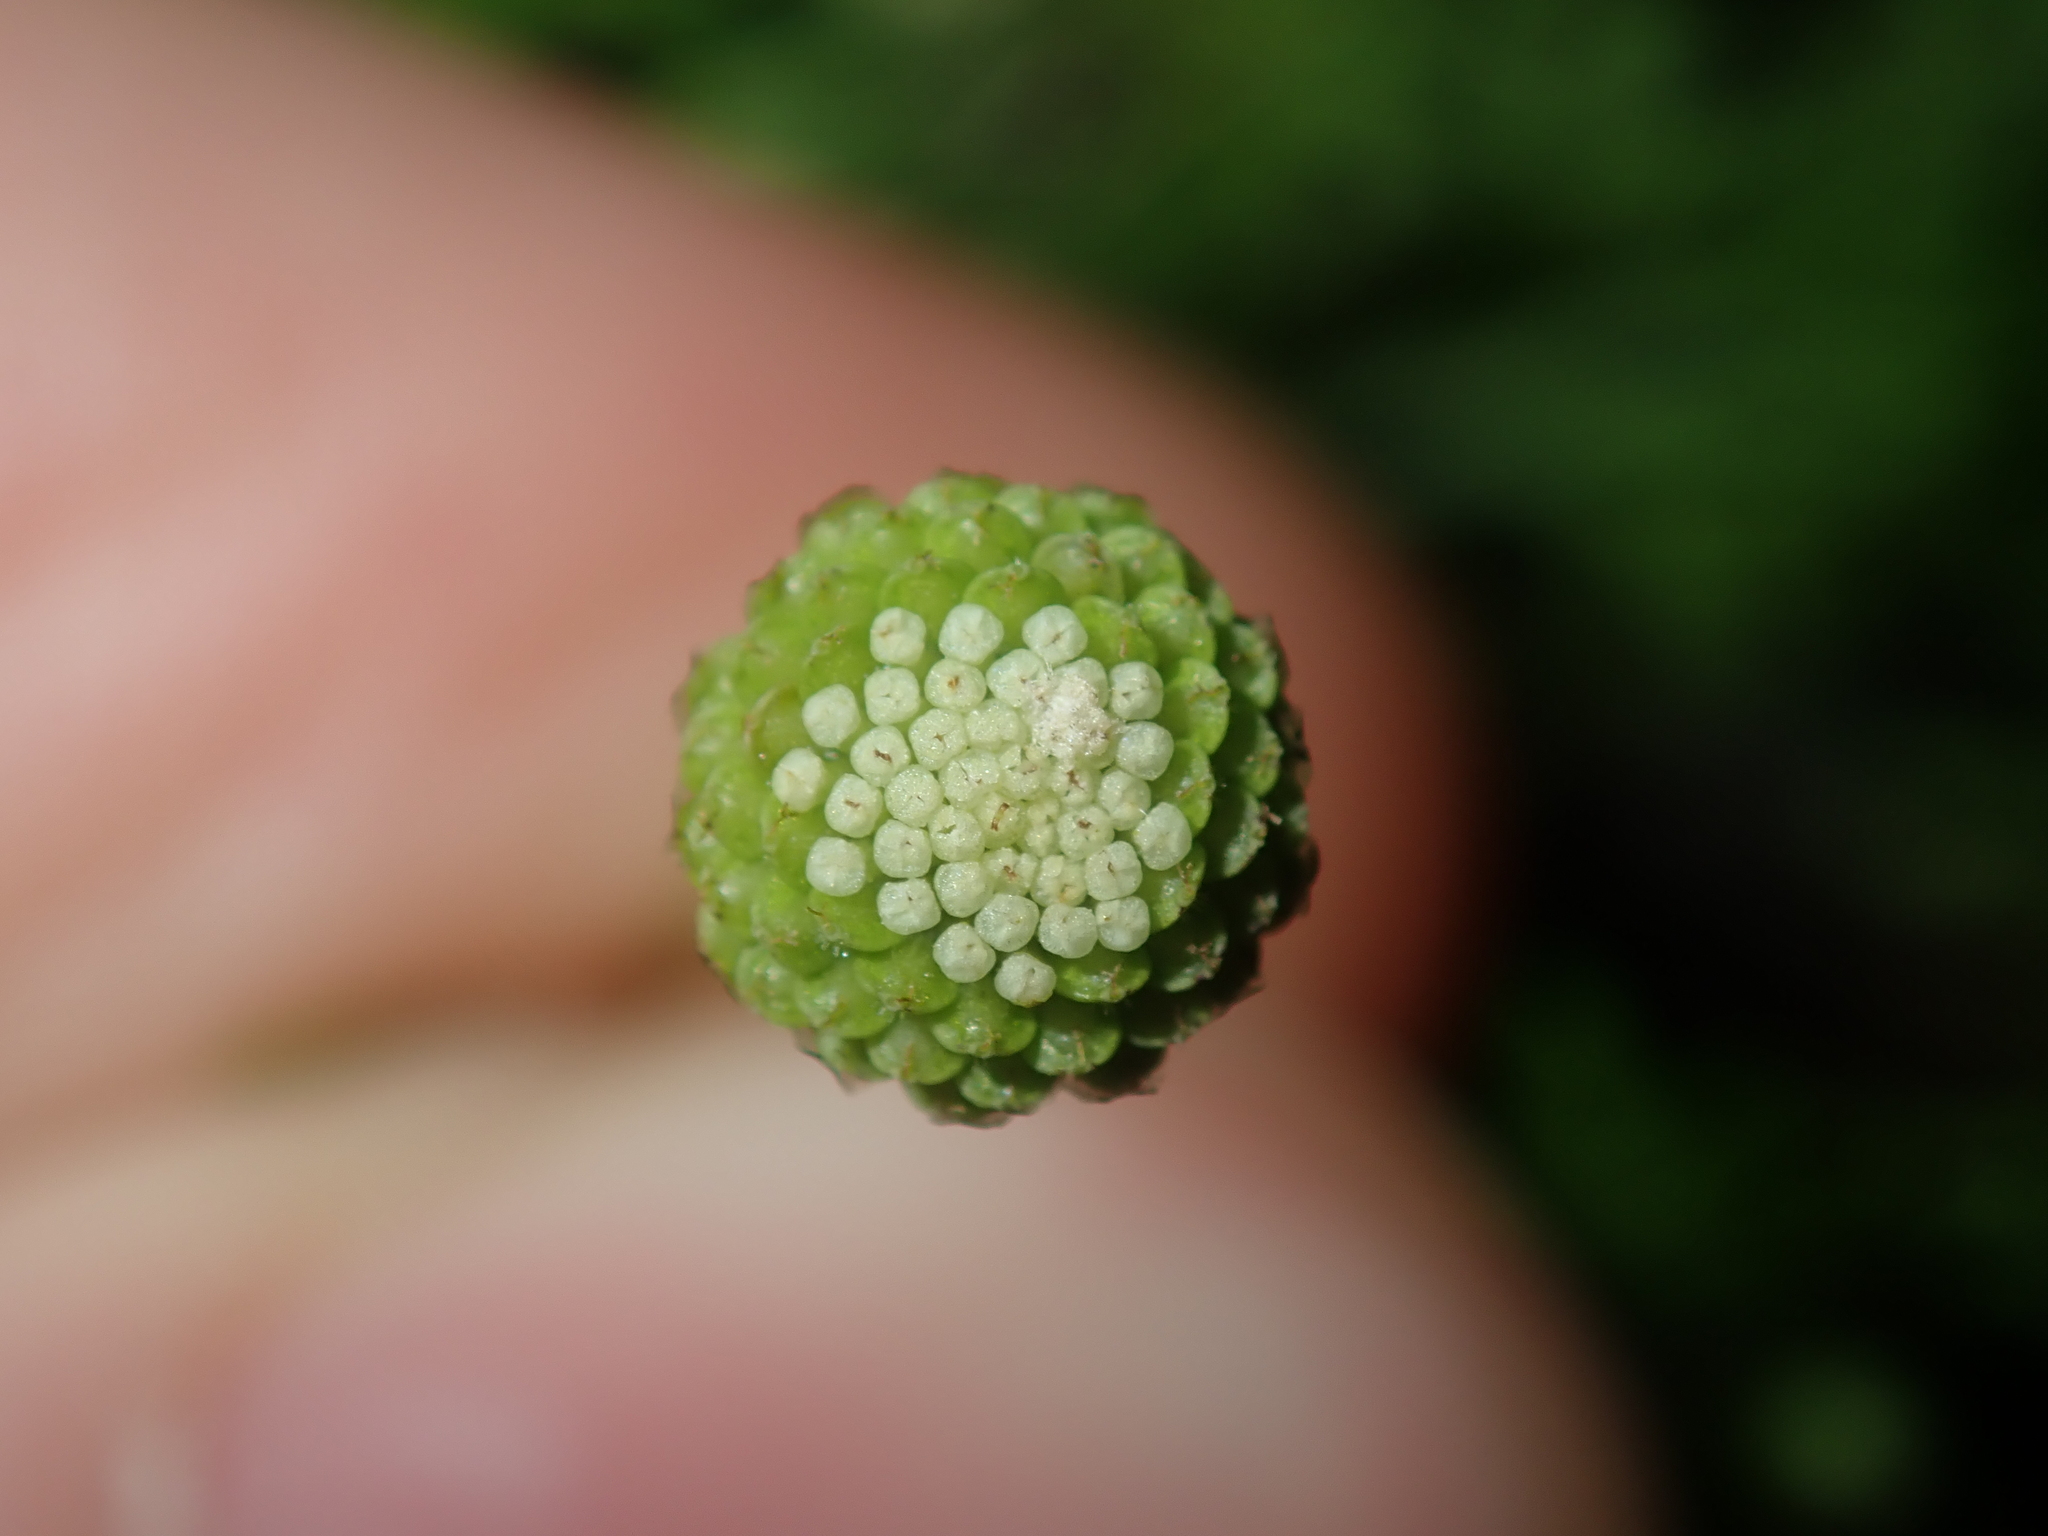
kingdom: Plantae
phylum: Tracheophyta
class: Magnoliopsida
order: Asterales
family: Asteraceae
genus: Cotula
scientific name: Cotula australis
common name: Australian waterbuttons
